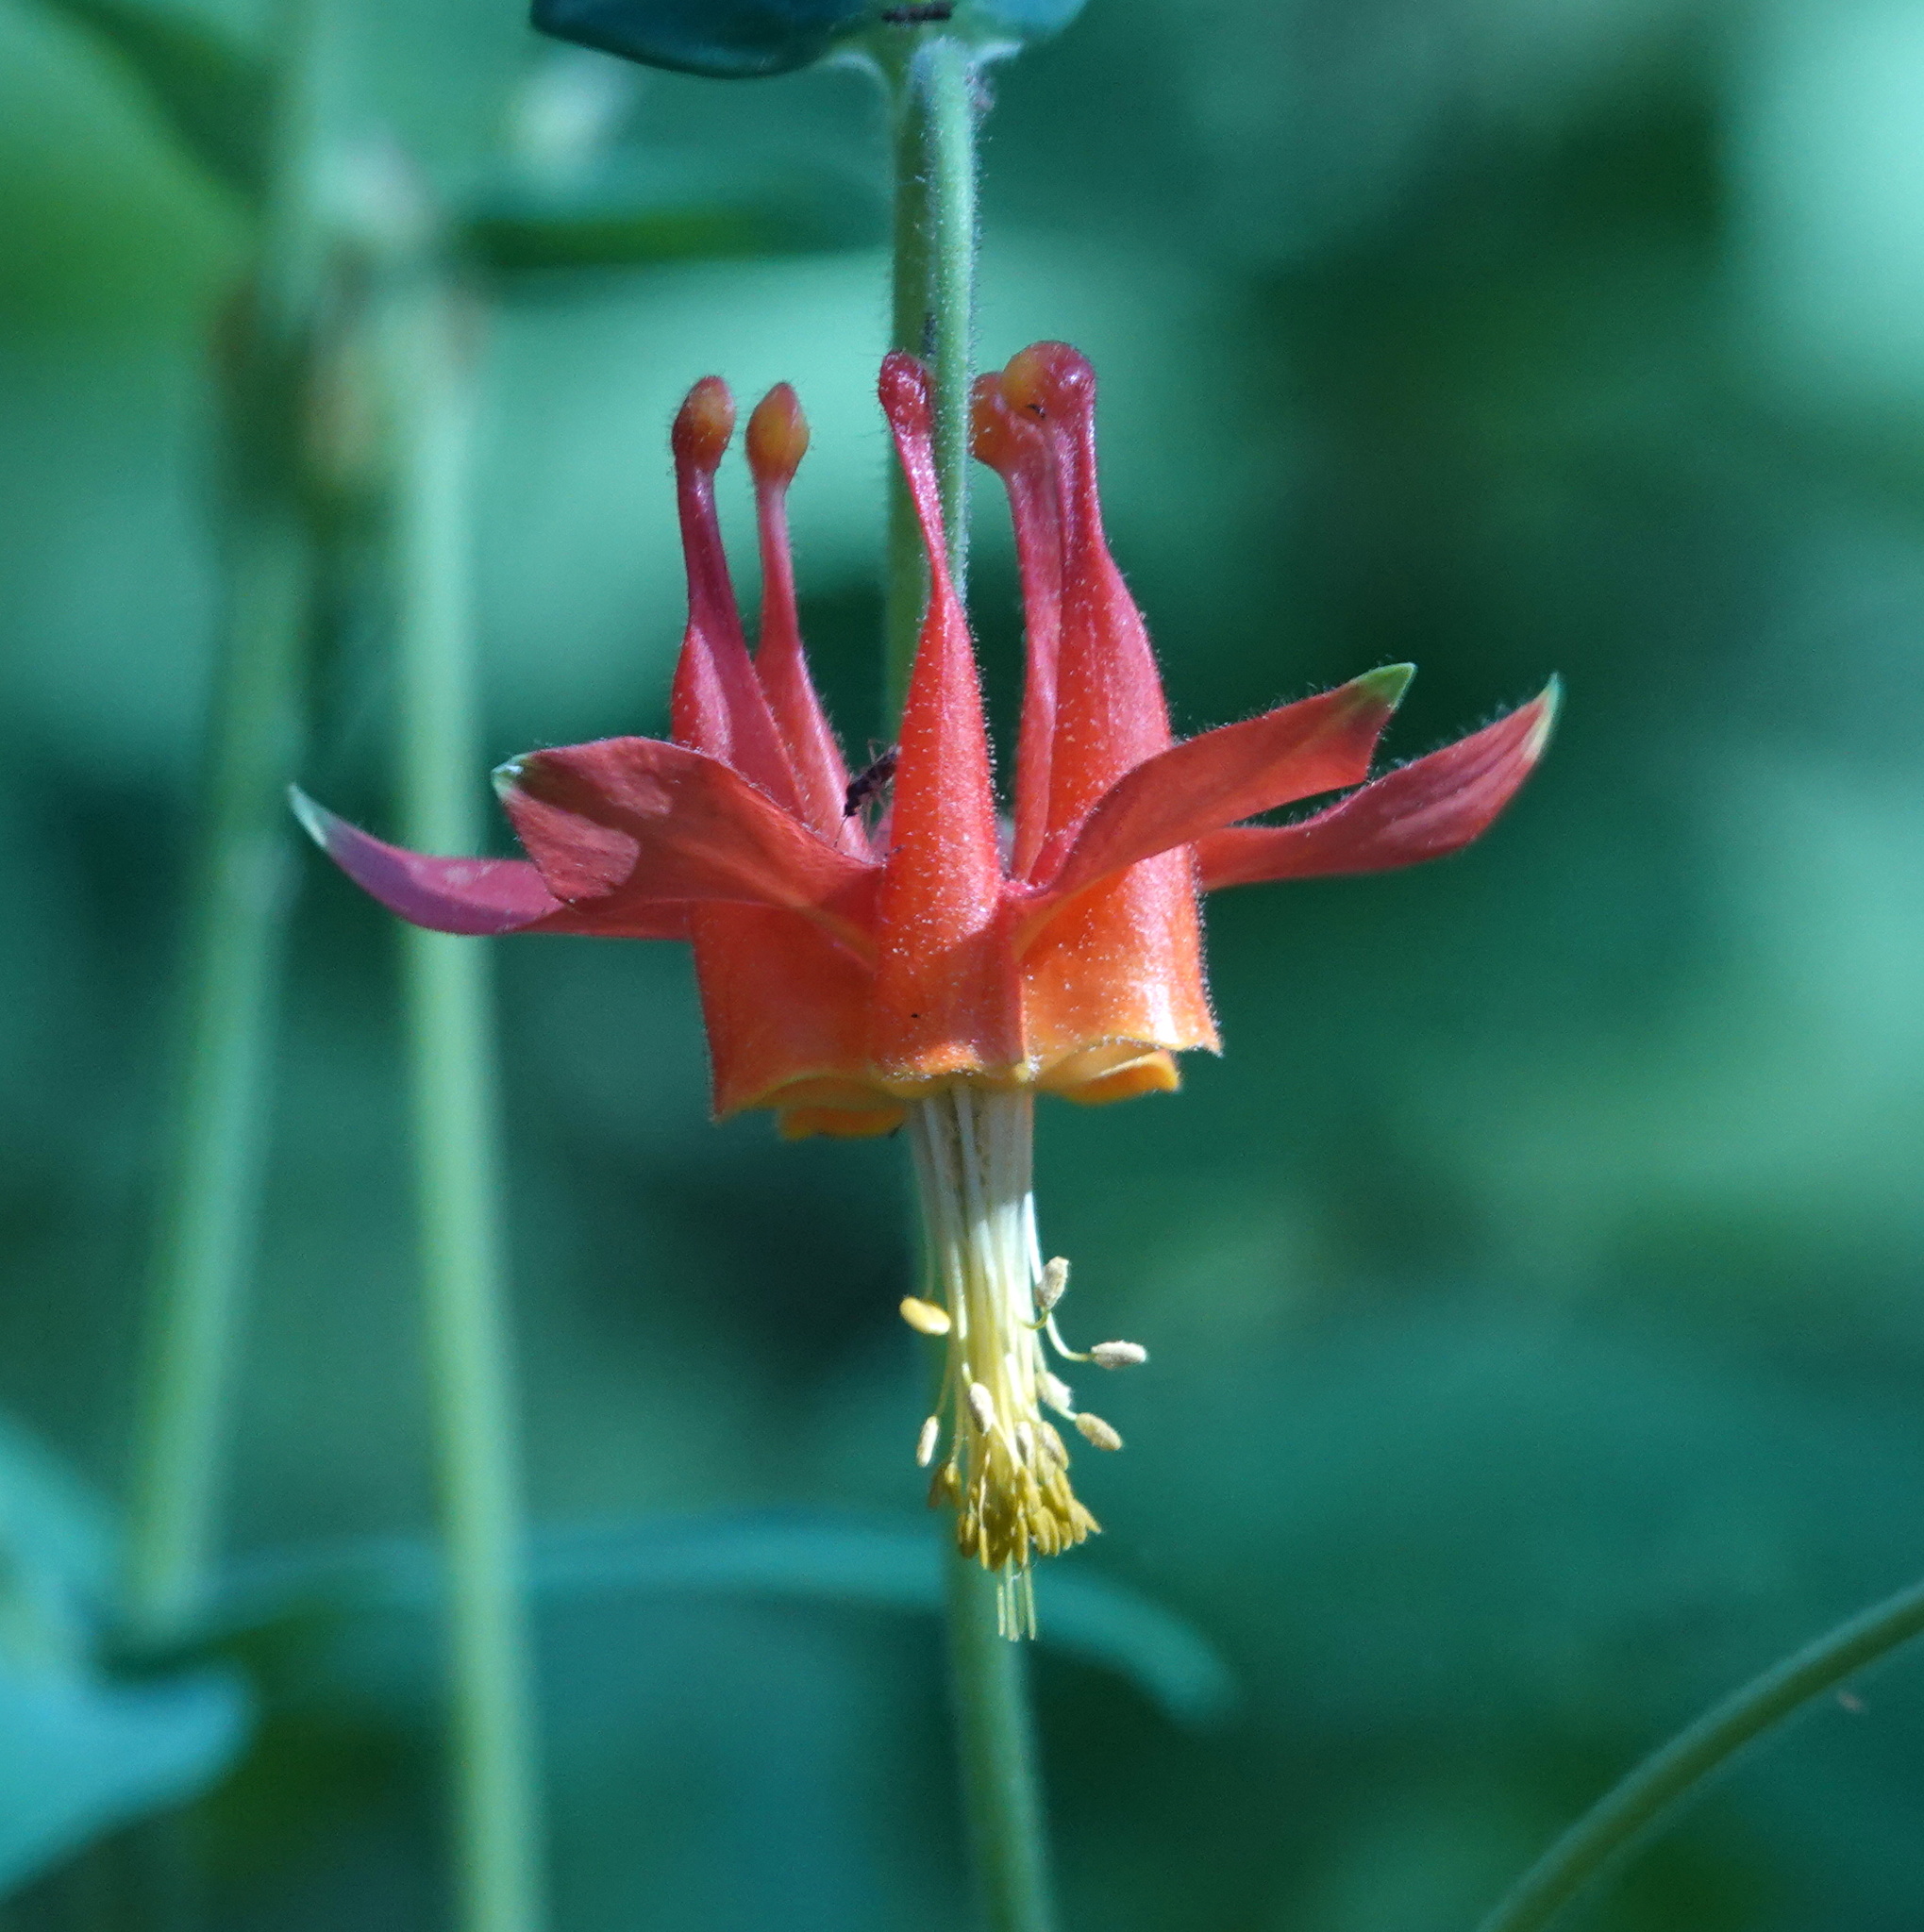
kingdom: Plantae
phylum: Tracheophyta
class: Magnoliopsida
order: Ranunculales
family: Ranunculaceae
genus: Aquilegia
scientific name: Aquilegia formosa
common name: Sitka columbine
